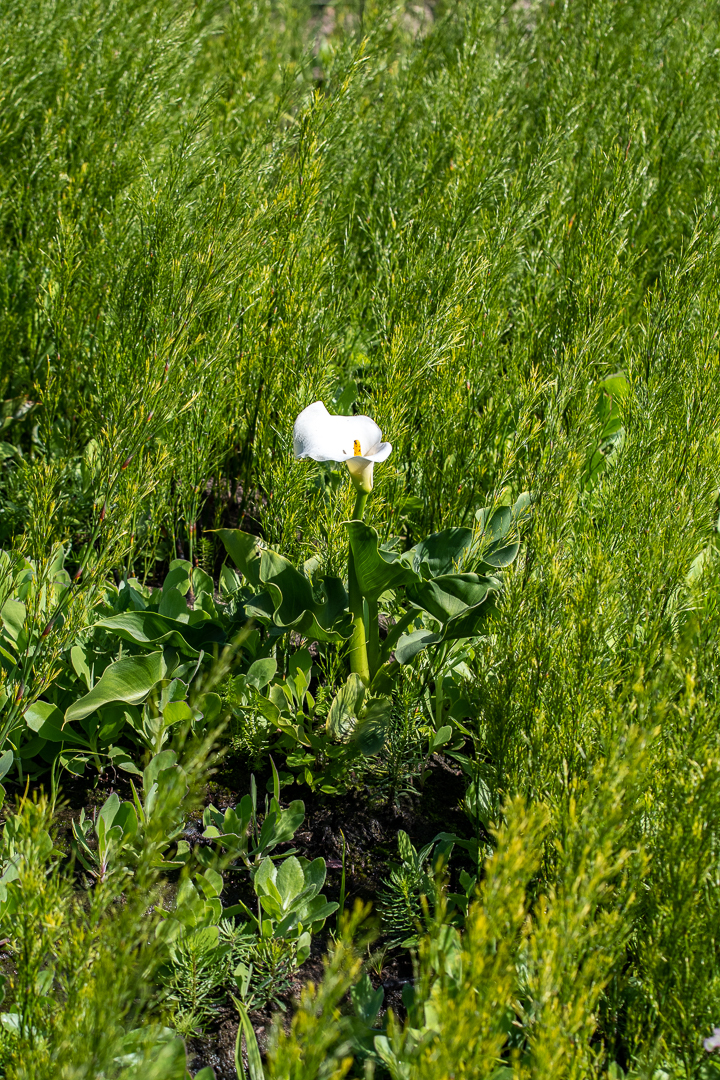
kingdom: Plantae
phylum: Tracheophyta
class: Liliopsida
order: Alismatales
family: Araceae
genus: Zantedeschia
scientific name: Zantedeschia aethiopica
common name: Altar-lily
